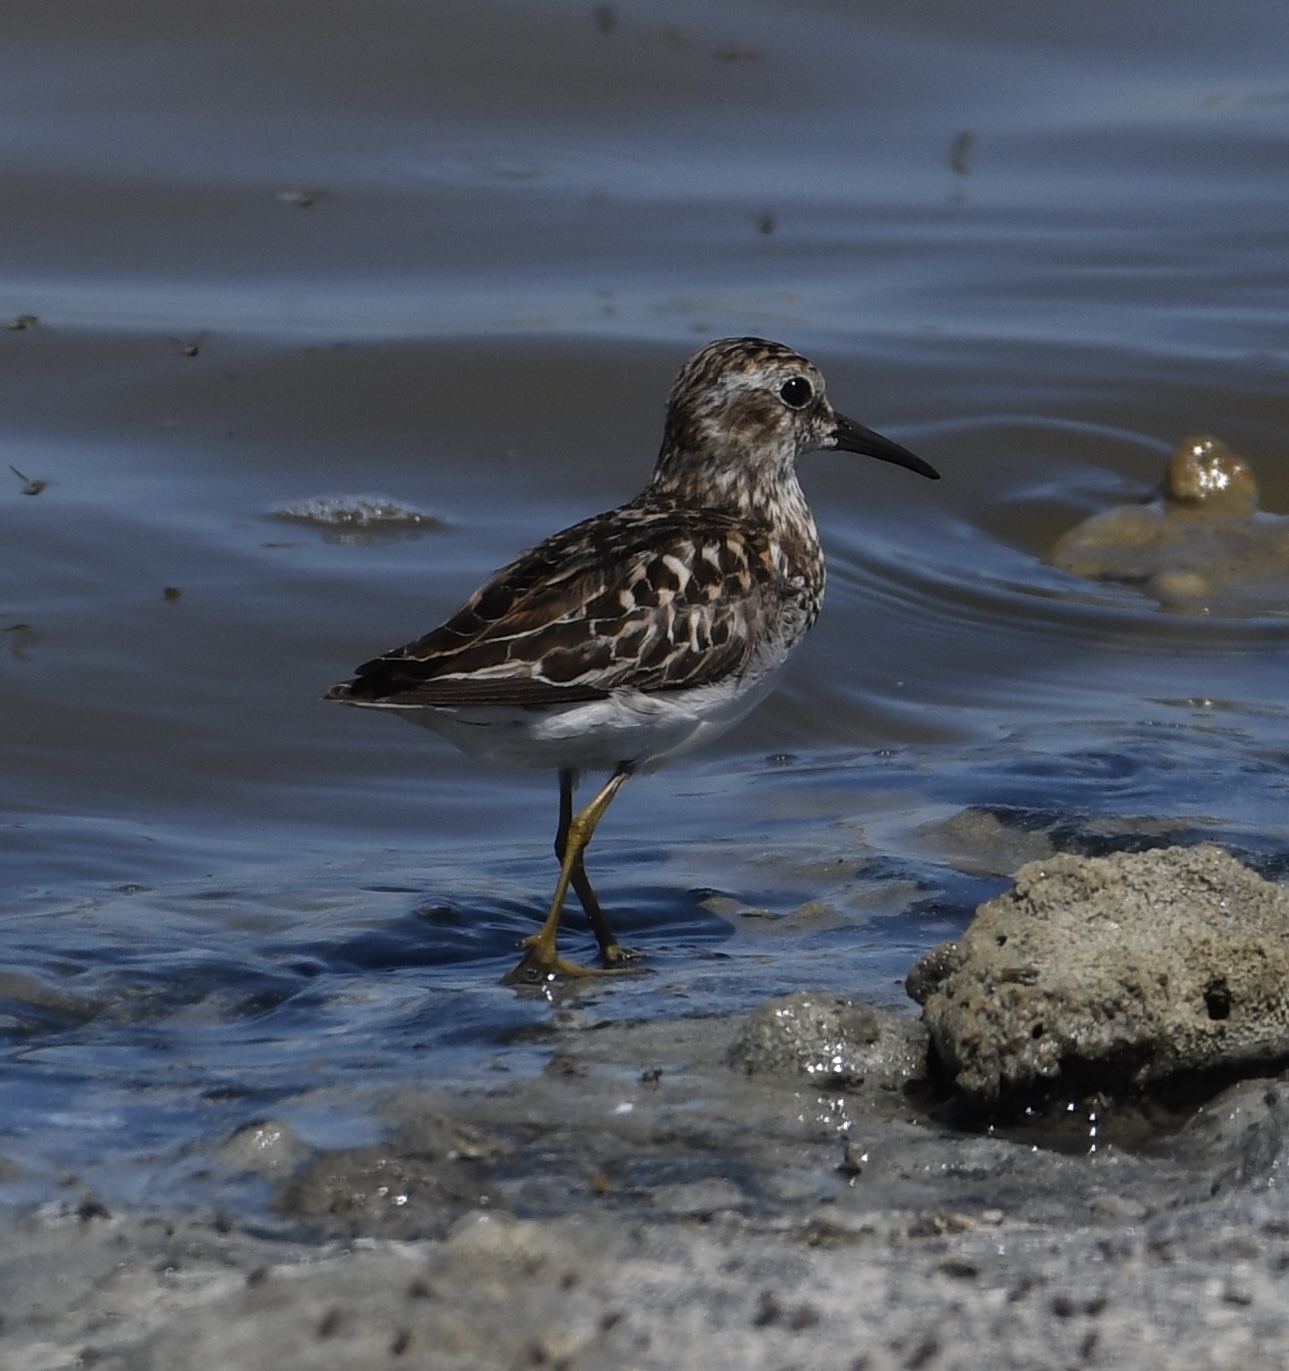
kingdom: Animalia
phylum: Chordata
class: Aves
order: Charadriiformes
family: Scolopacidae
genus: Calidris
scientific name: Calidris minutilla
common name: Least sandpiper
